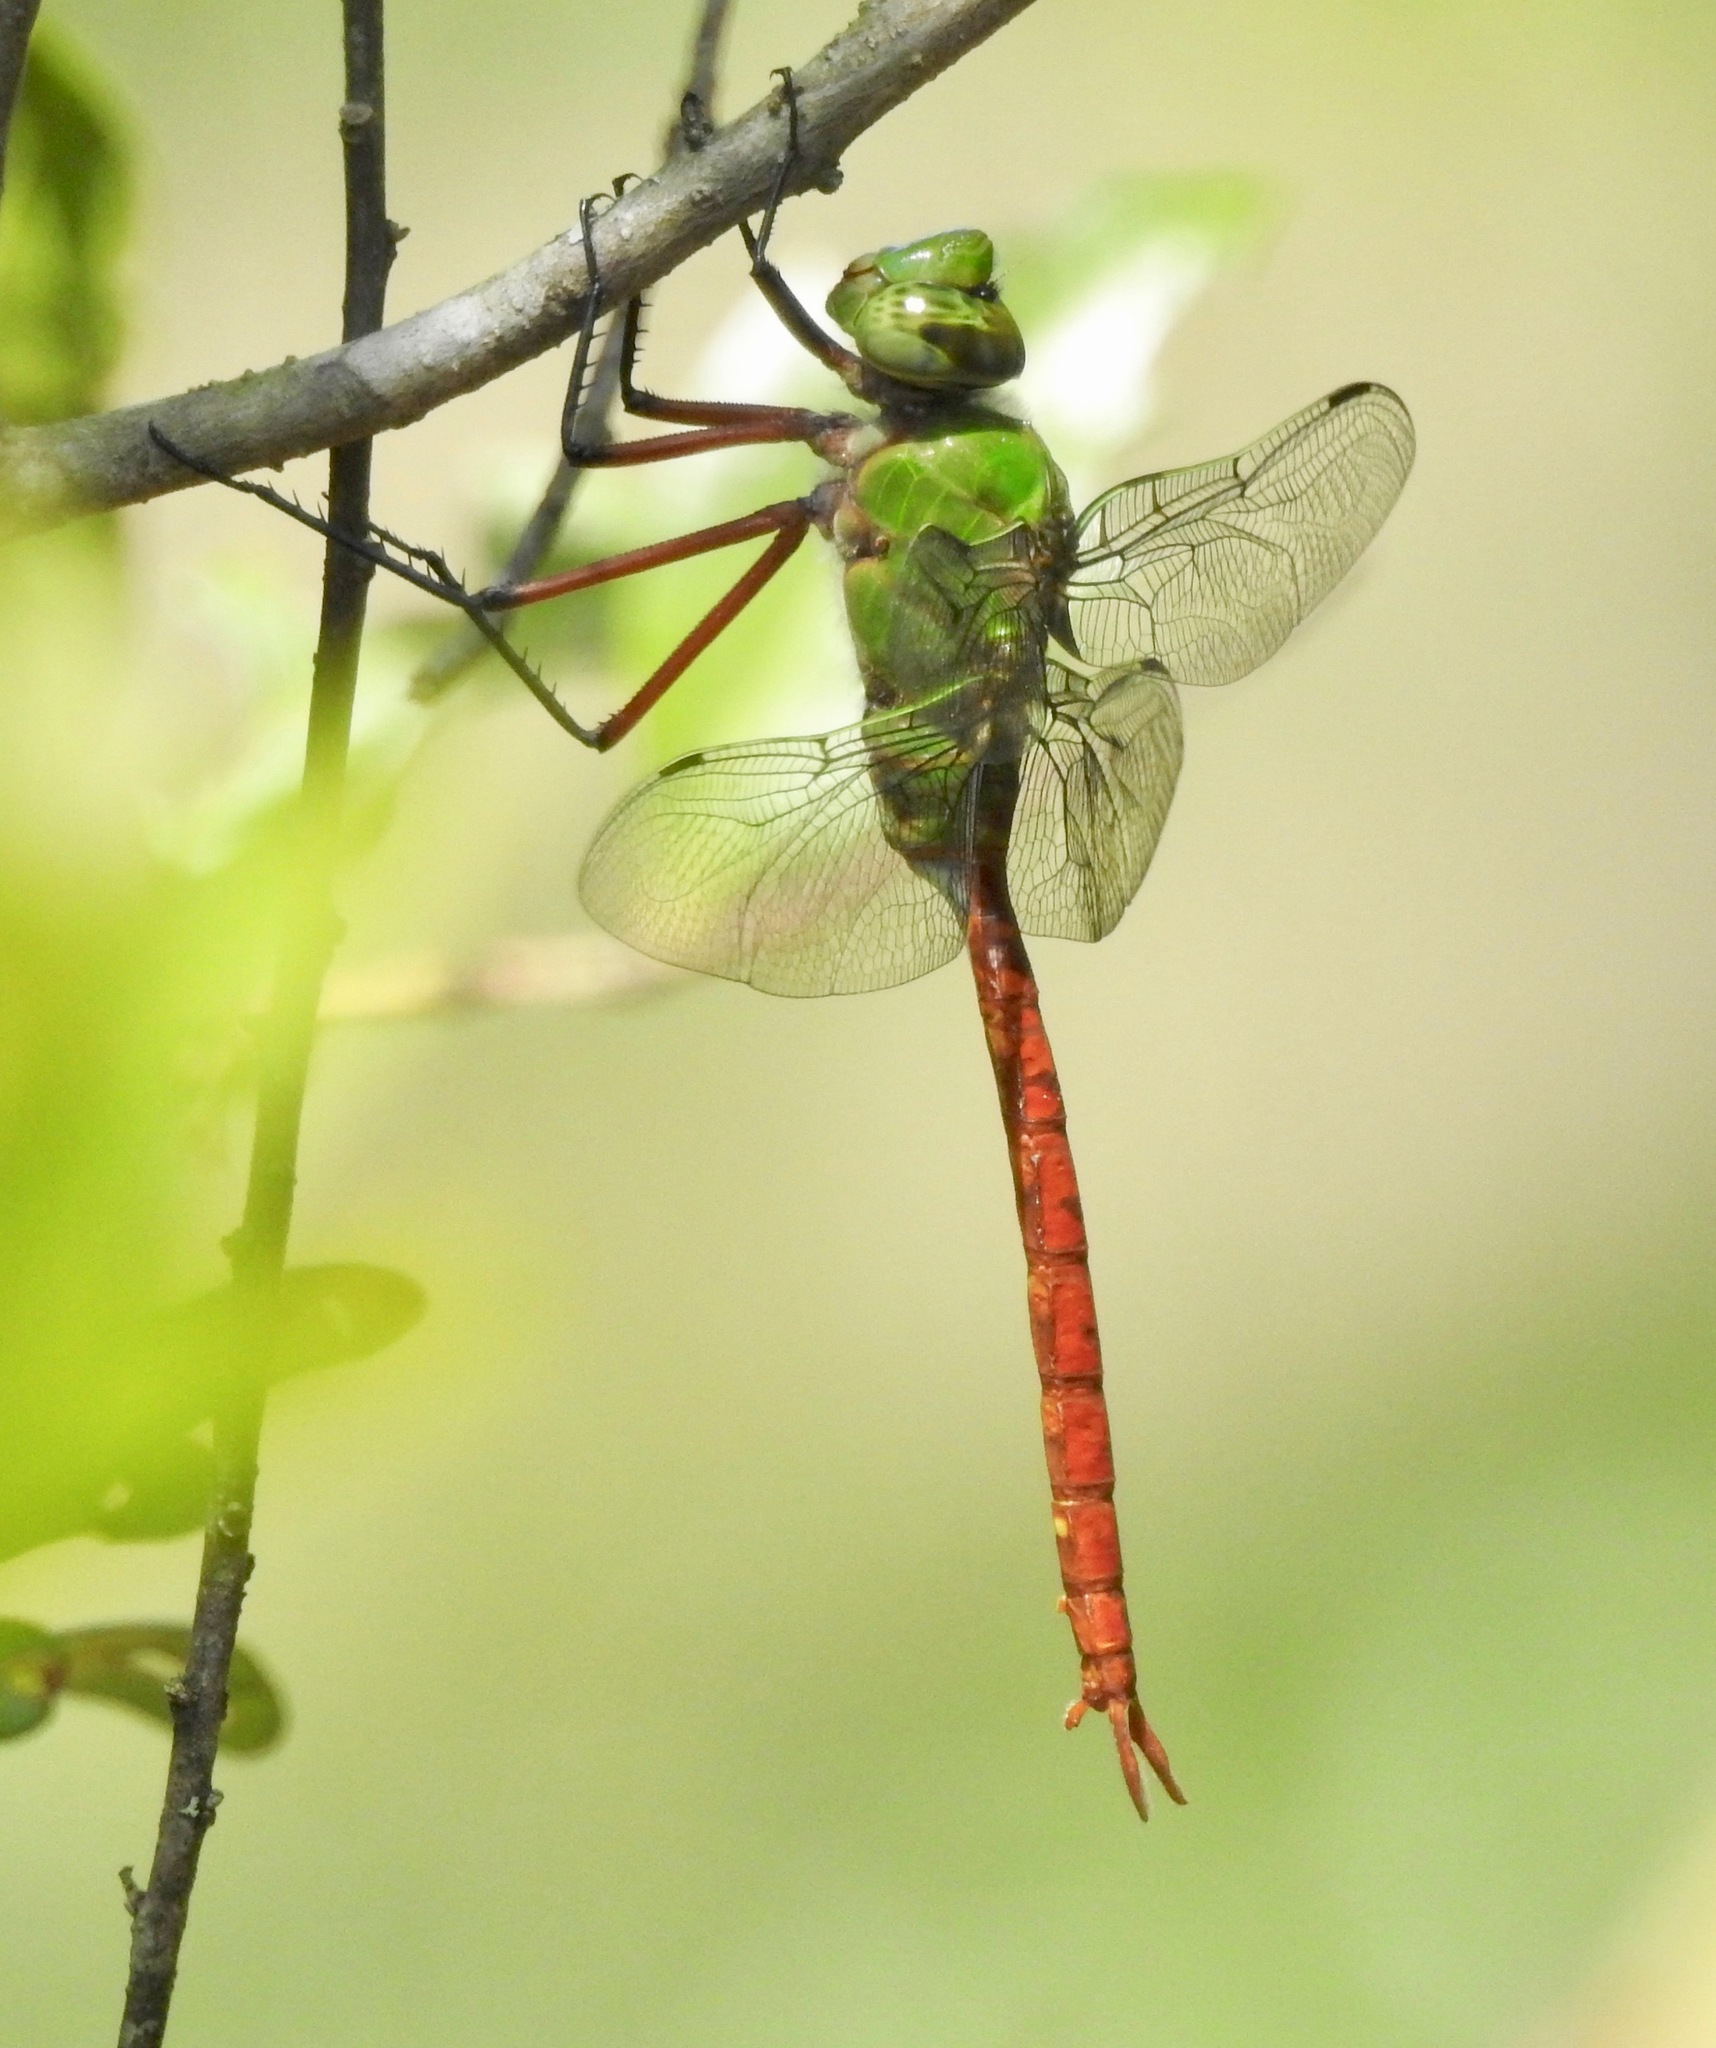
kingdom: Animalia
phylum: Arthropoda
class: Insecta
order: Odonata
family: Aeshnidae
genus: Anax
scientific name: Anax longipes
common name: Comet darner
